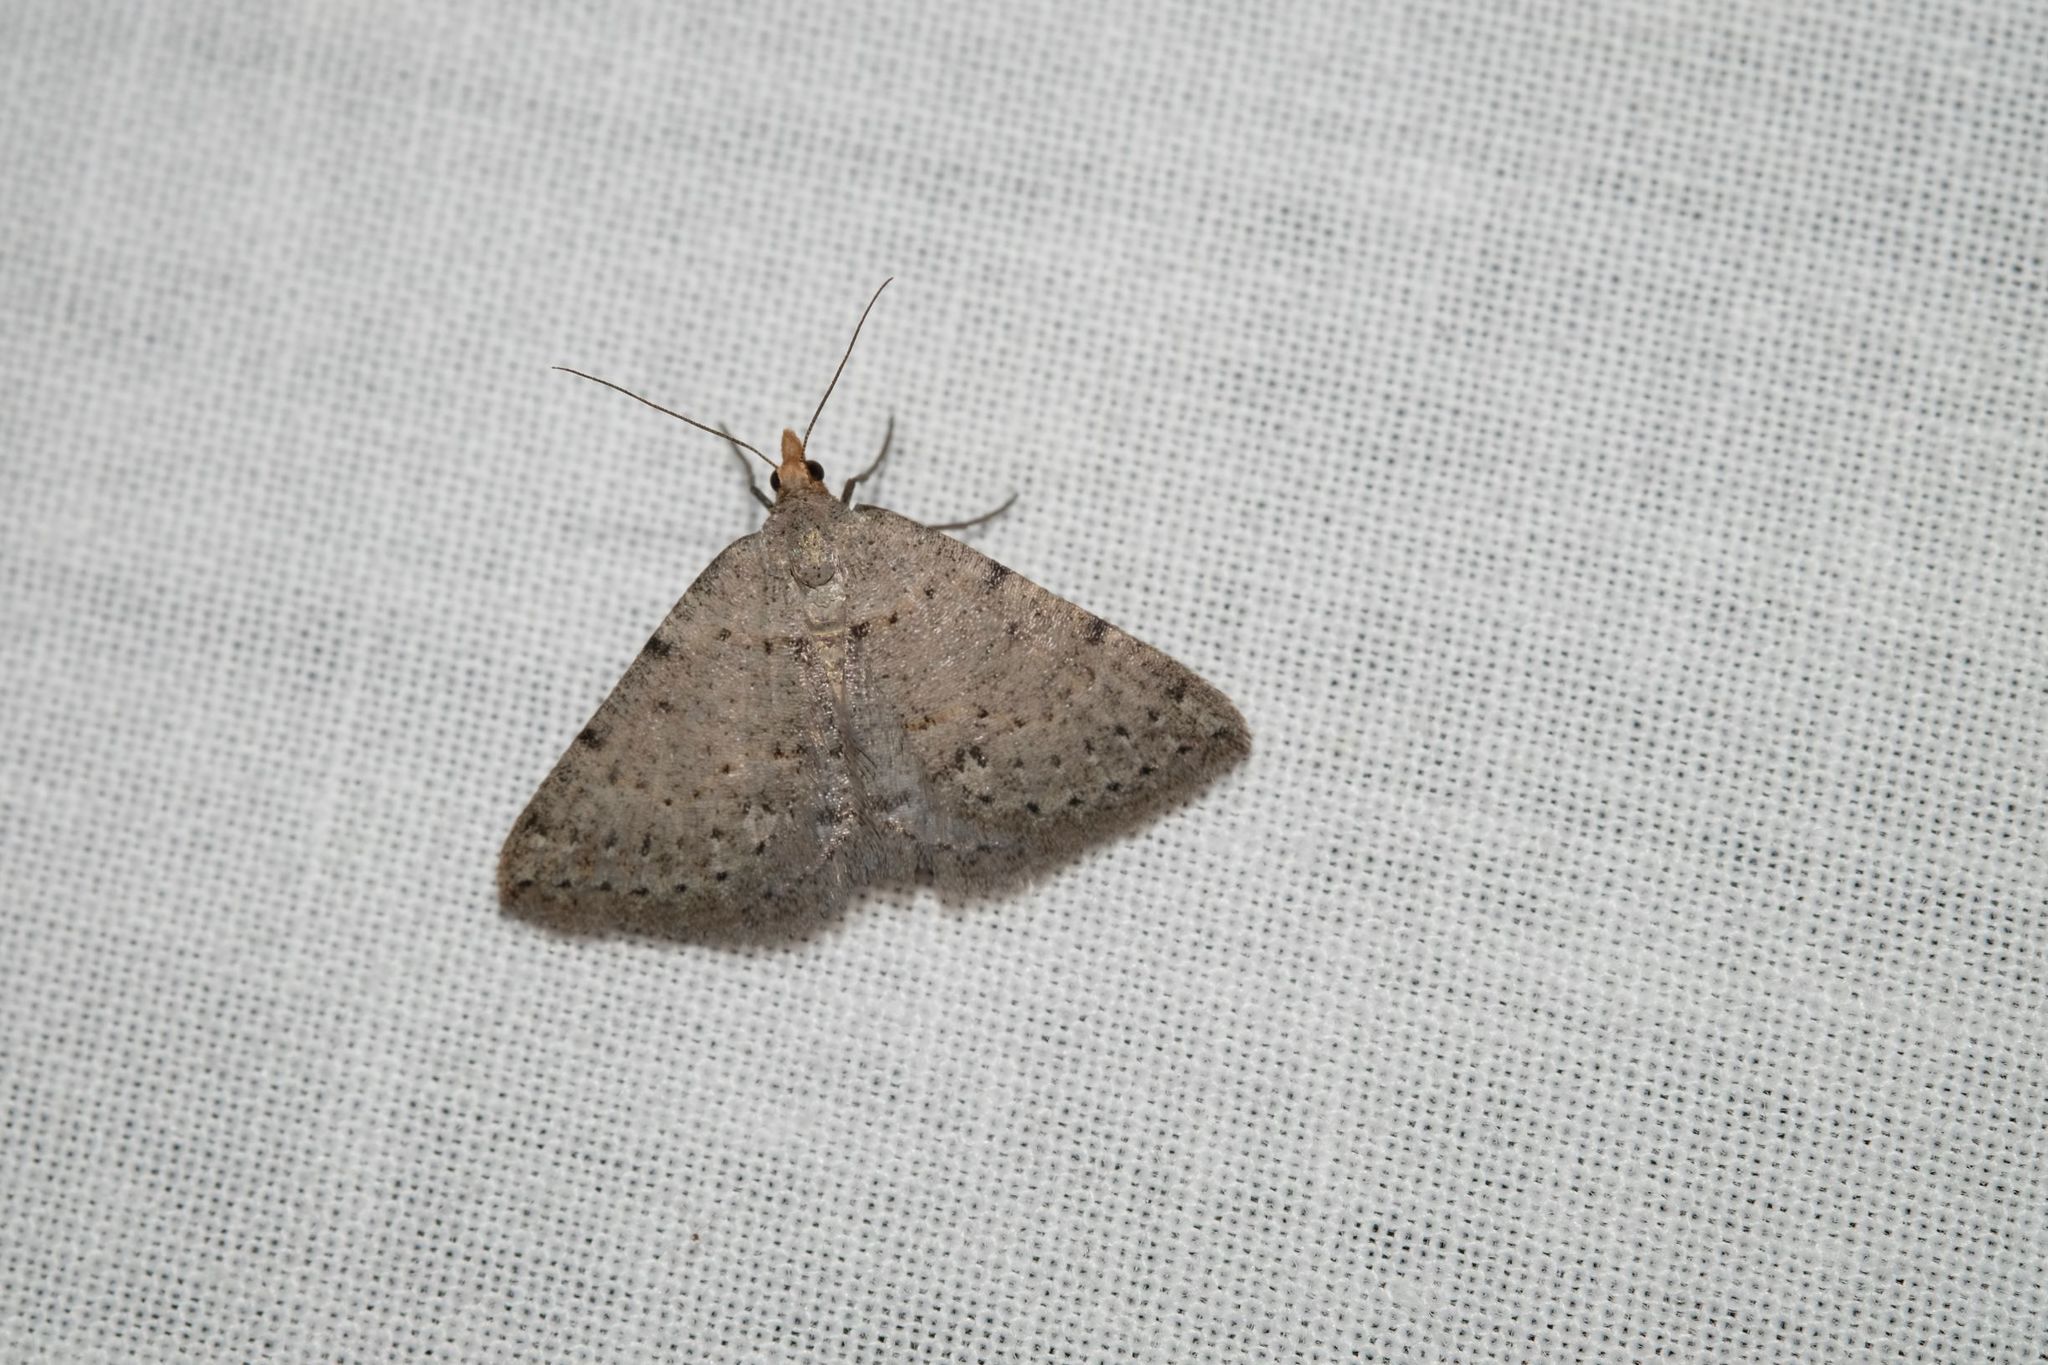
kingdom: Animalia
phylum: Arthropoda
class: Insecta
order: Lepidoptera
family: Geometridae
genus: Taxeotis
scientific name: Taxeotis exsectaria
